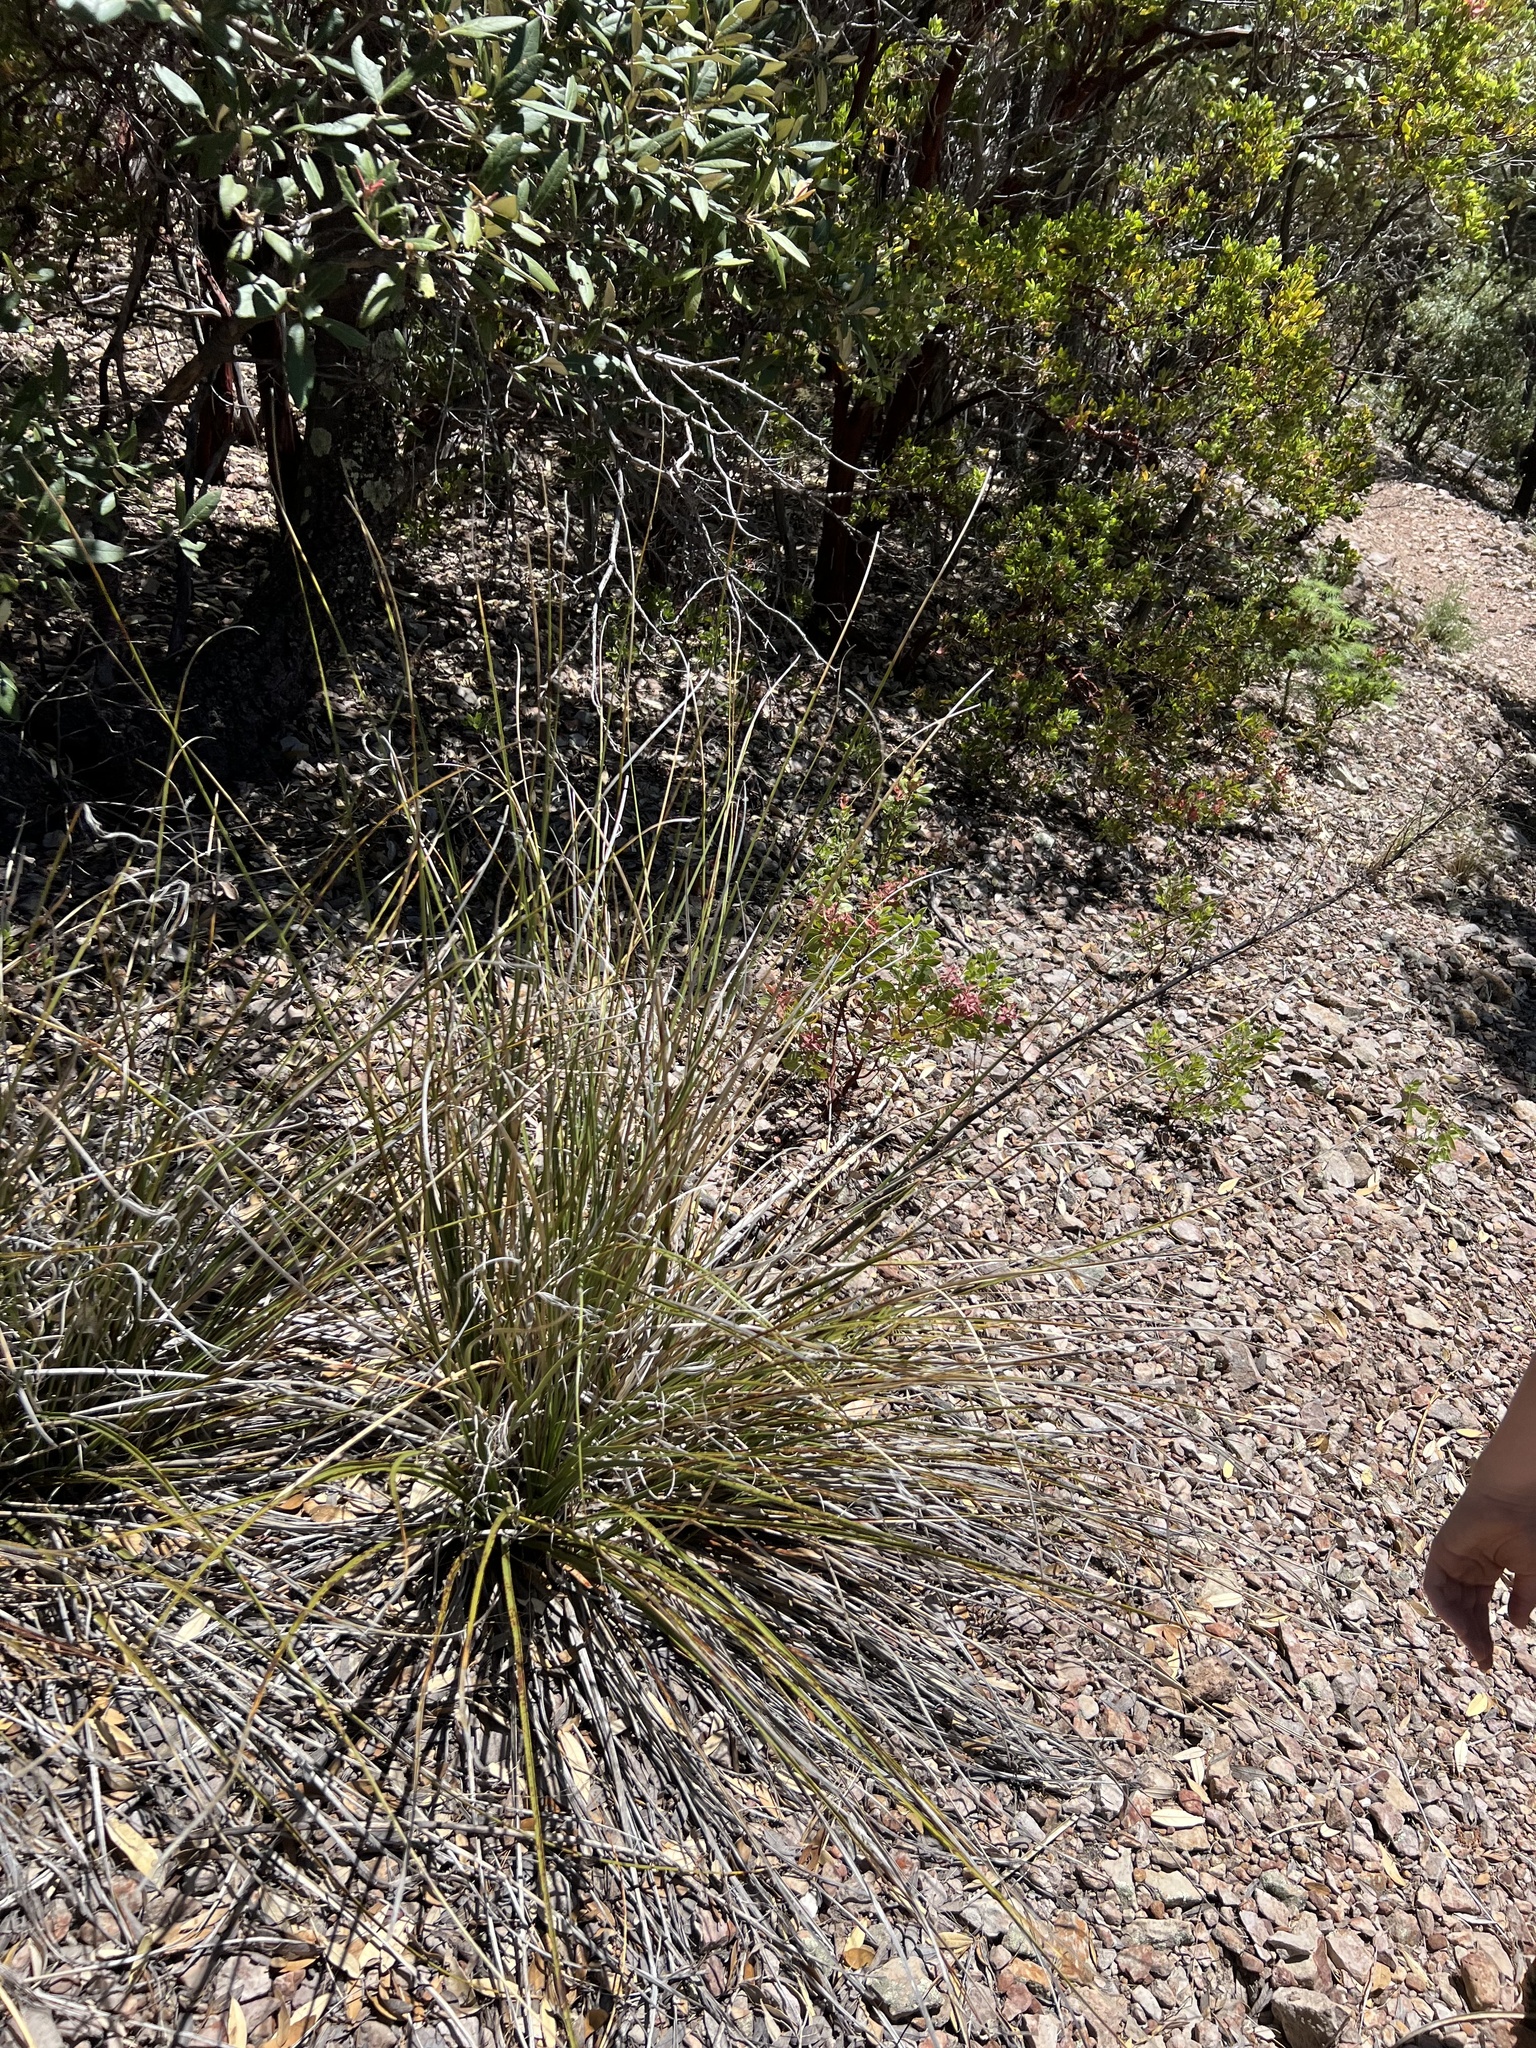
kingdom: Plantae
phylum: Tracheophyta
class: Liliopsida
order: Asparagales
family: Asparagaceae
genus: Nolina
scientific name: Nolina microcarpa
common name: Bear-grass
